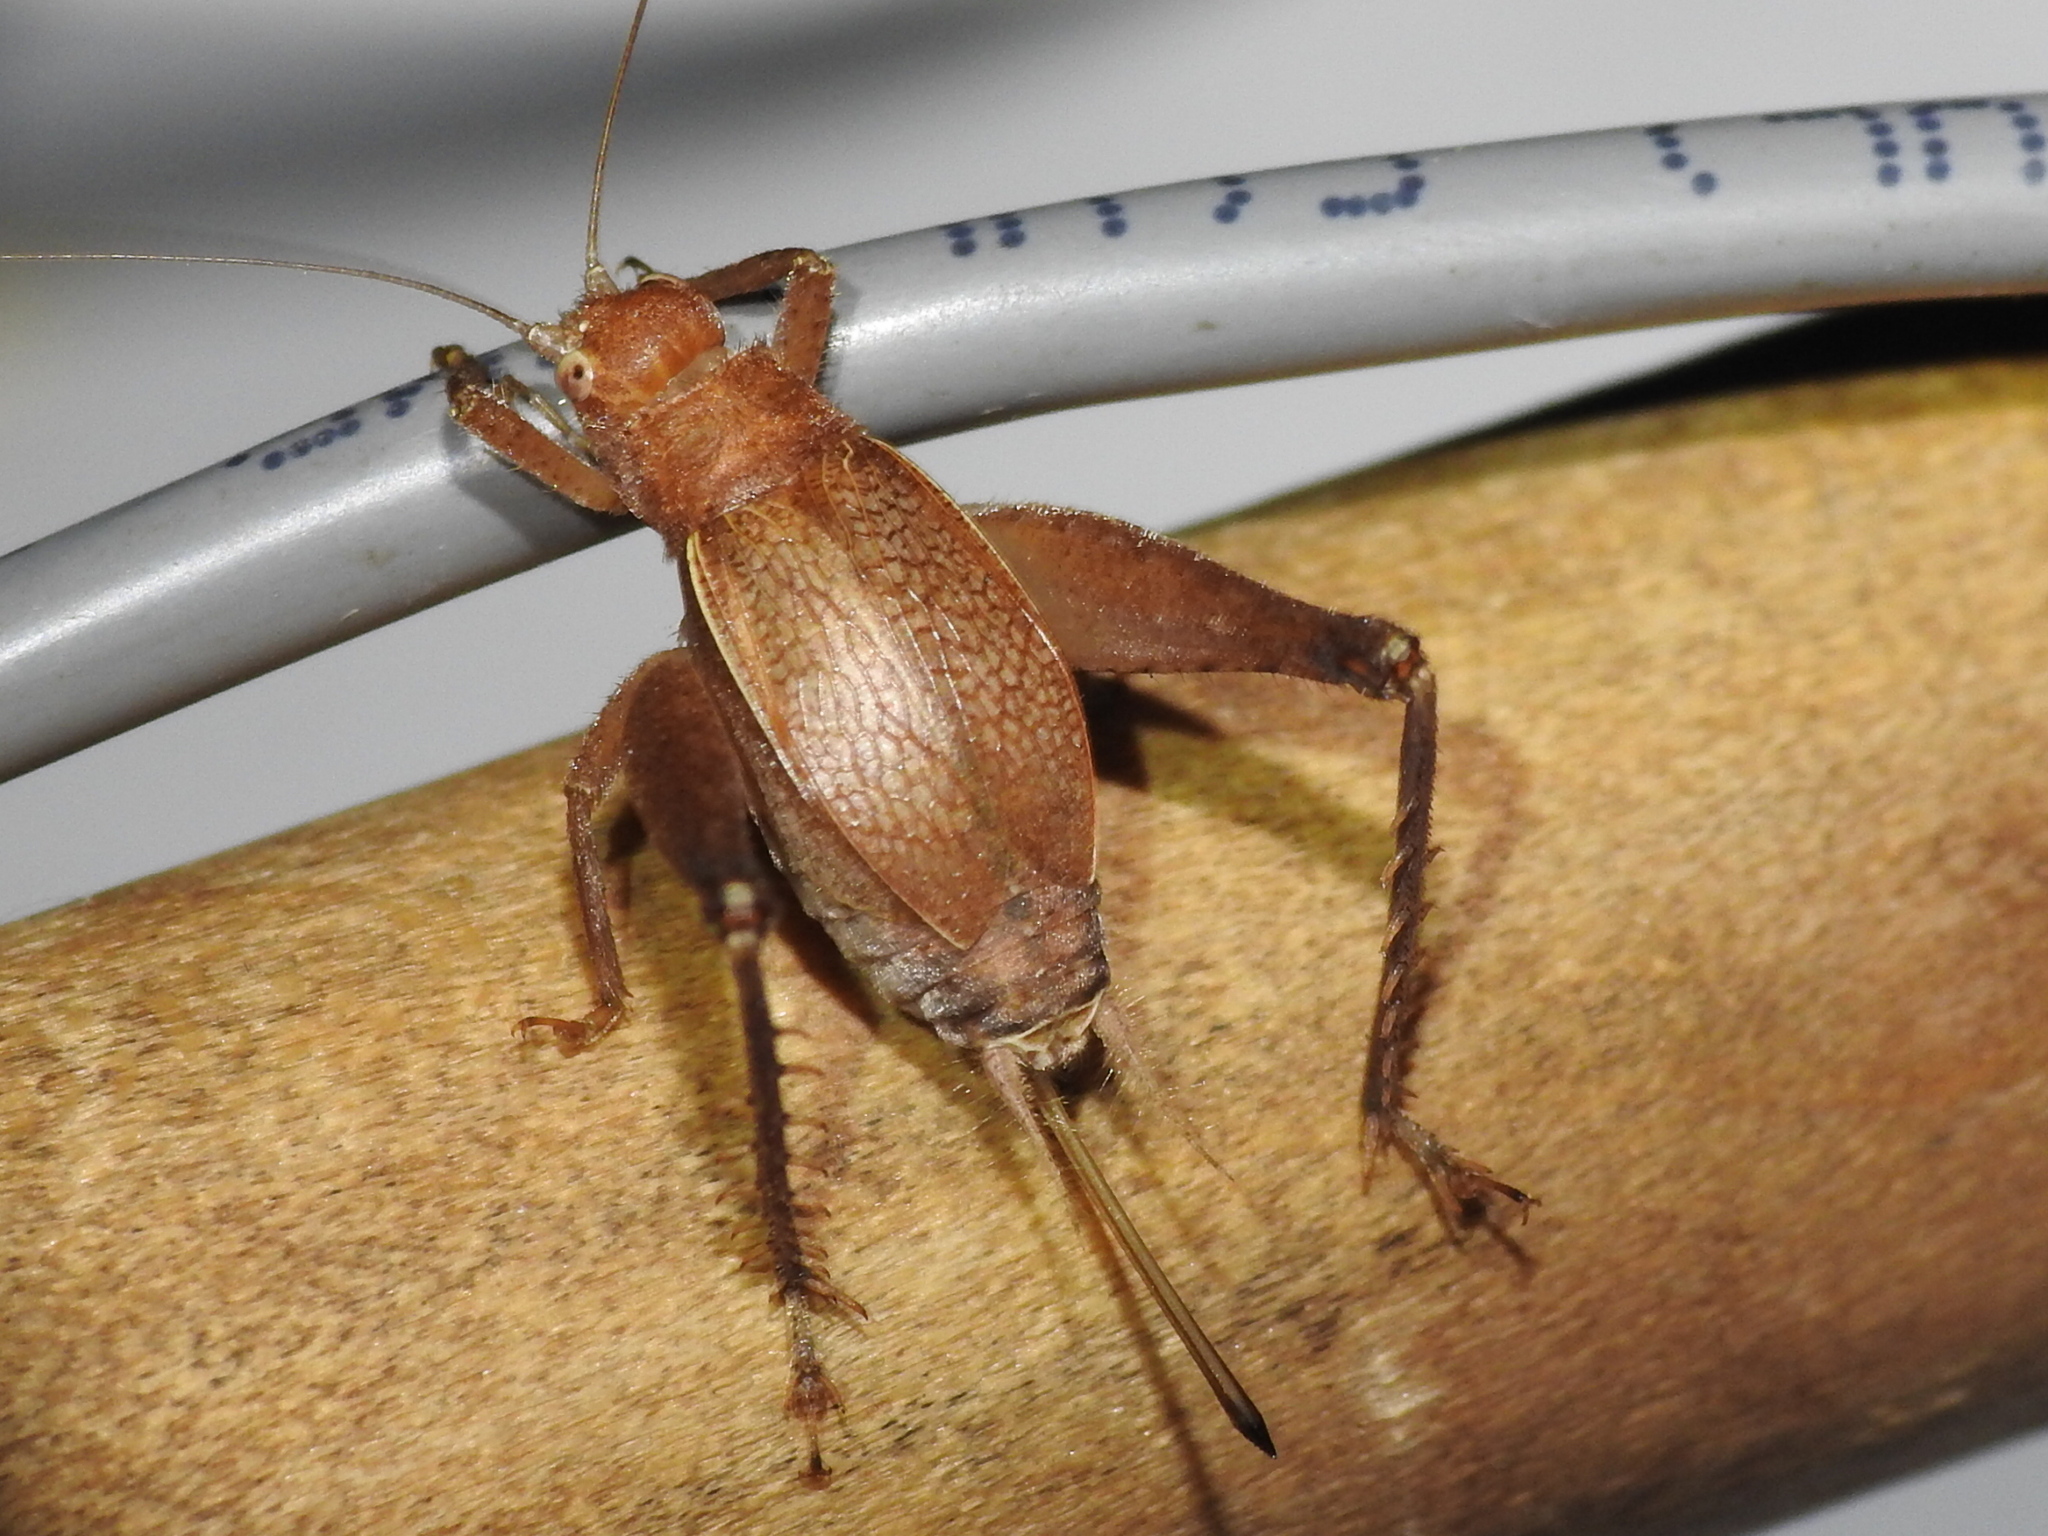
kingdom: Animalia
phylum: Arthropoda
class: Insecta
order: Orthoptera
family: Gryllidae
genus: Hapithus
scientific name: Hapithus agitator
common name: Restless bush cricket
